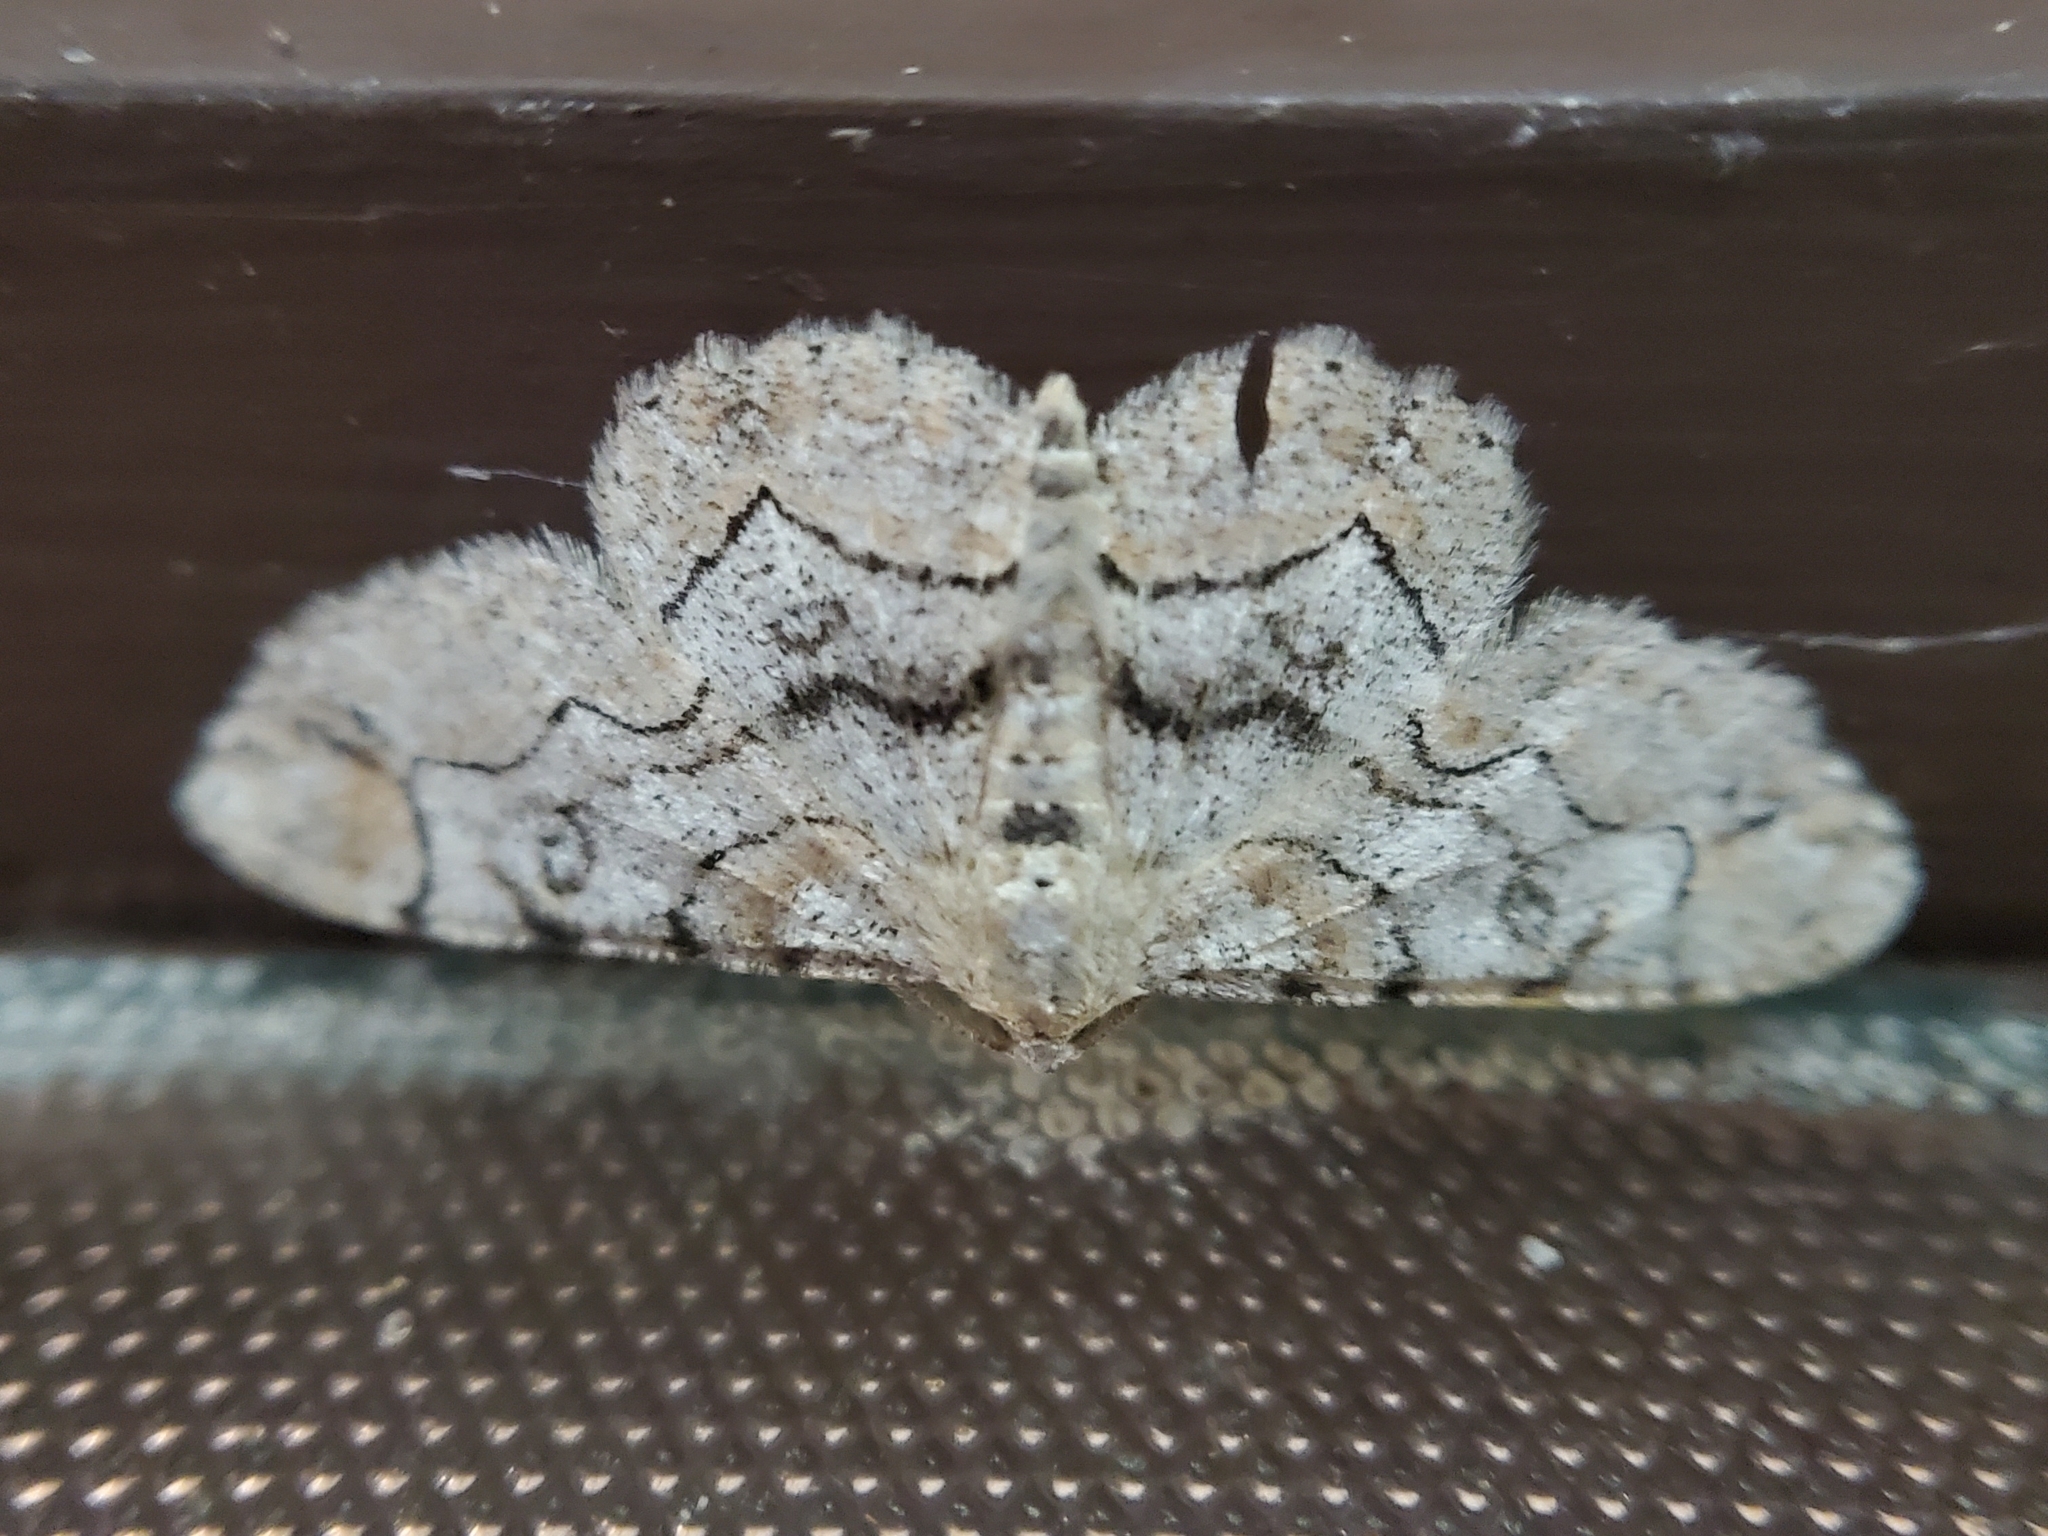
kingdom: Animalia
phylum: Arthropoda
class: Insecta
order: Lepidoptera
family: Geometridae
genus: Iridopsis
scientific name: Iridopsis larvaria
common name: Bent-line gray
